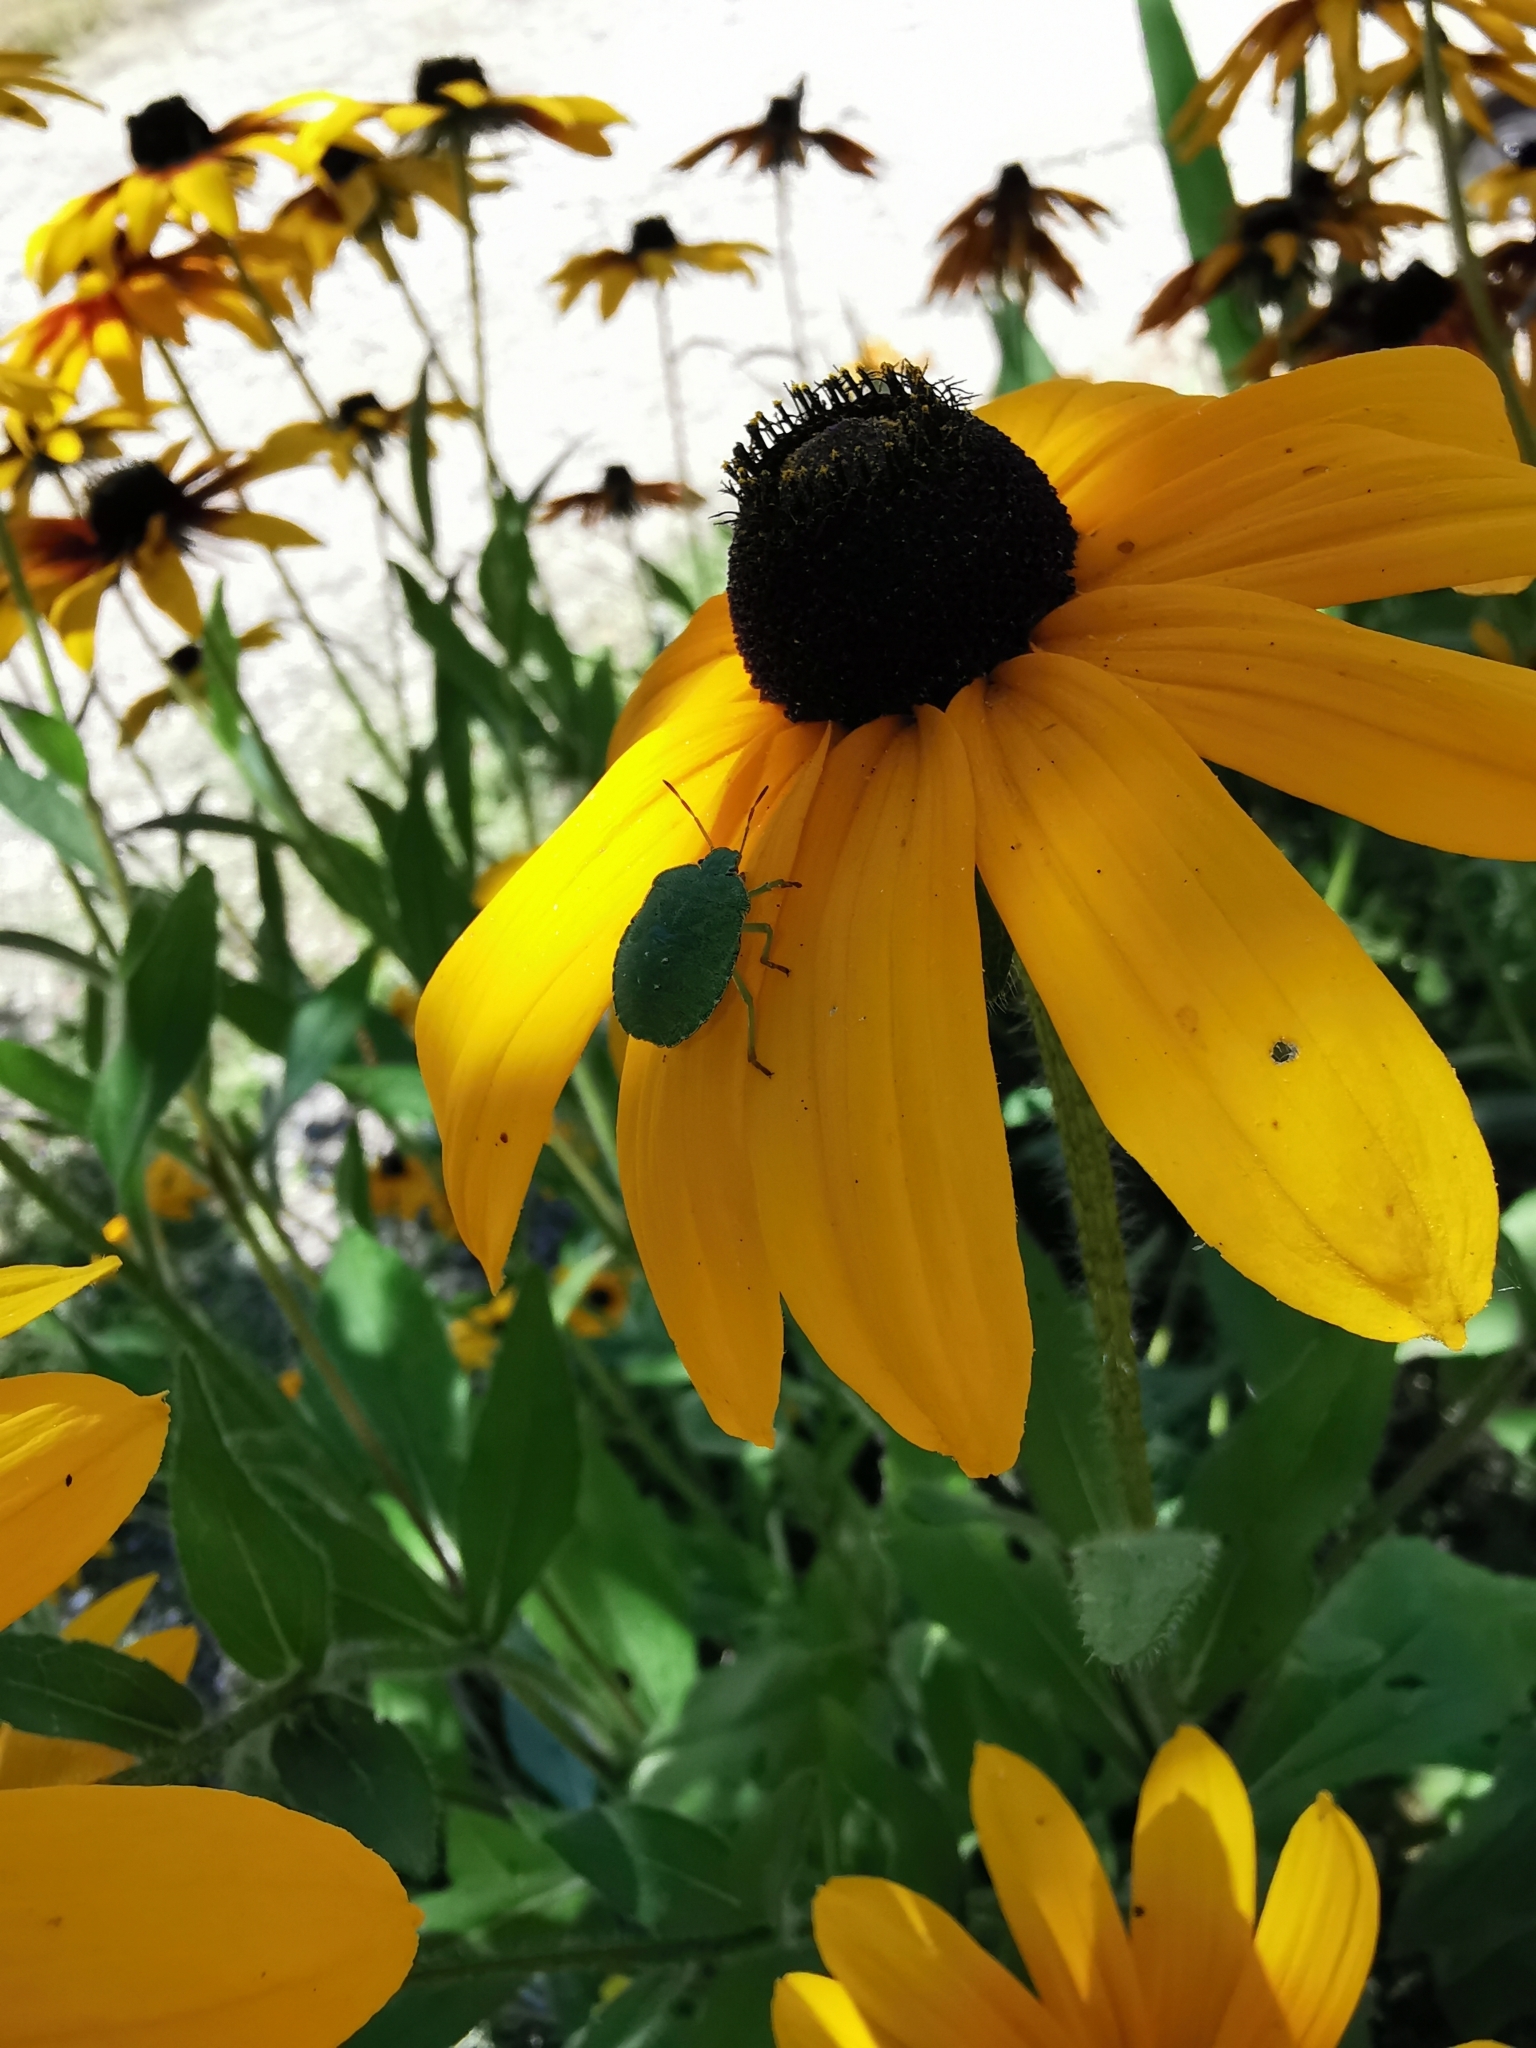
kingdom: Animalia
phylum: Arthropoda
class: Insecta
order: Hemiptera
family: Pentatomidae
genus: Palomena
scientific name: Palomena prasina
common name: Green shieldbug
